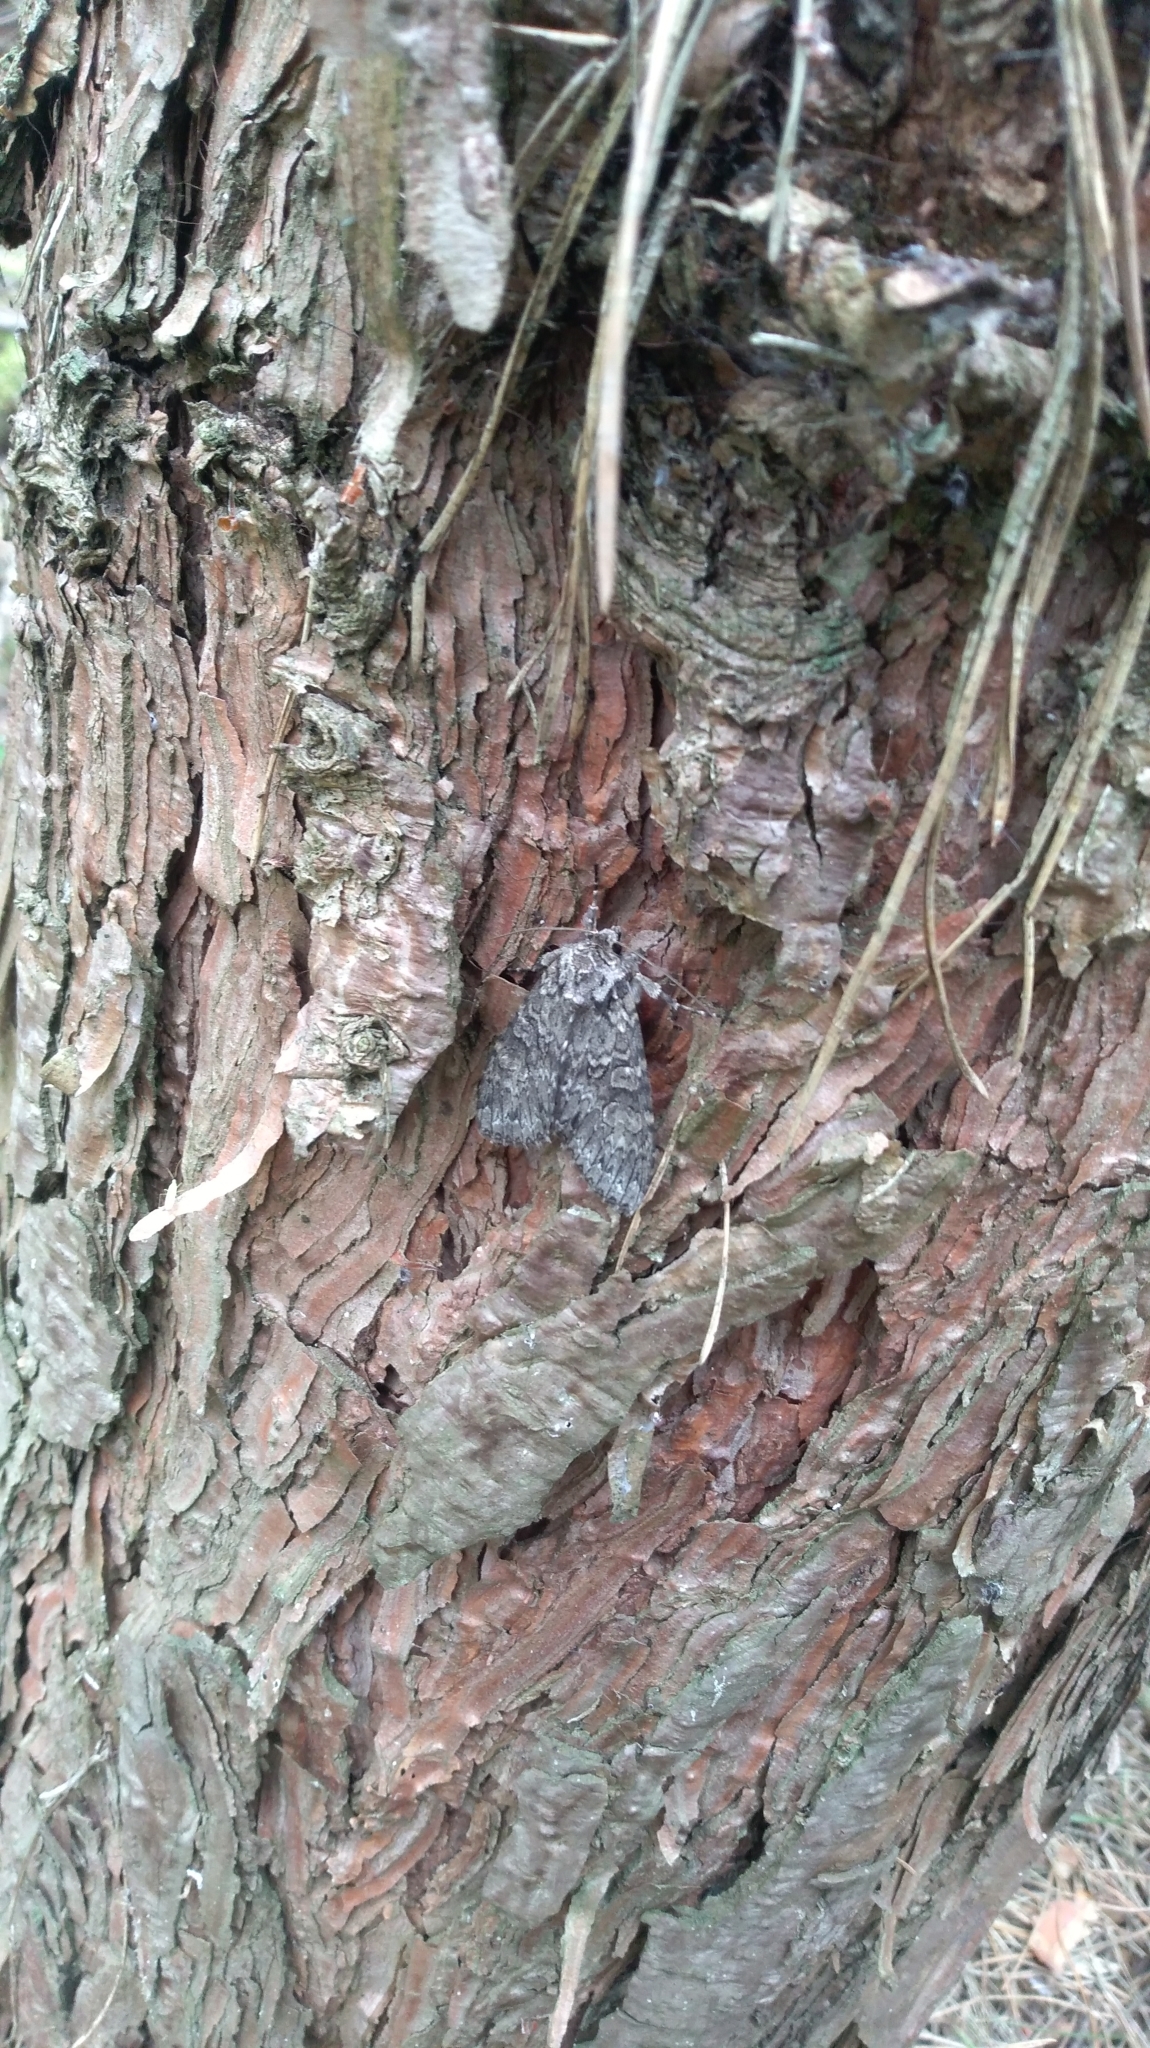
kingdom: Animalia
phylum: Arthropoda
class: Insecta
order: Lepidoptera
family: Noctuidae
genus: Polia
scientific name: Polia nebulosa
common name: Grey arches
